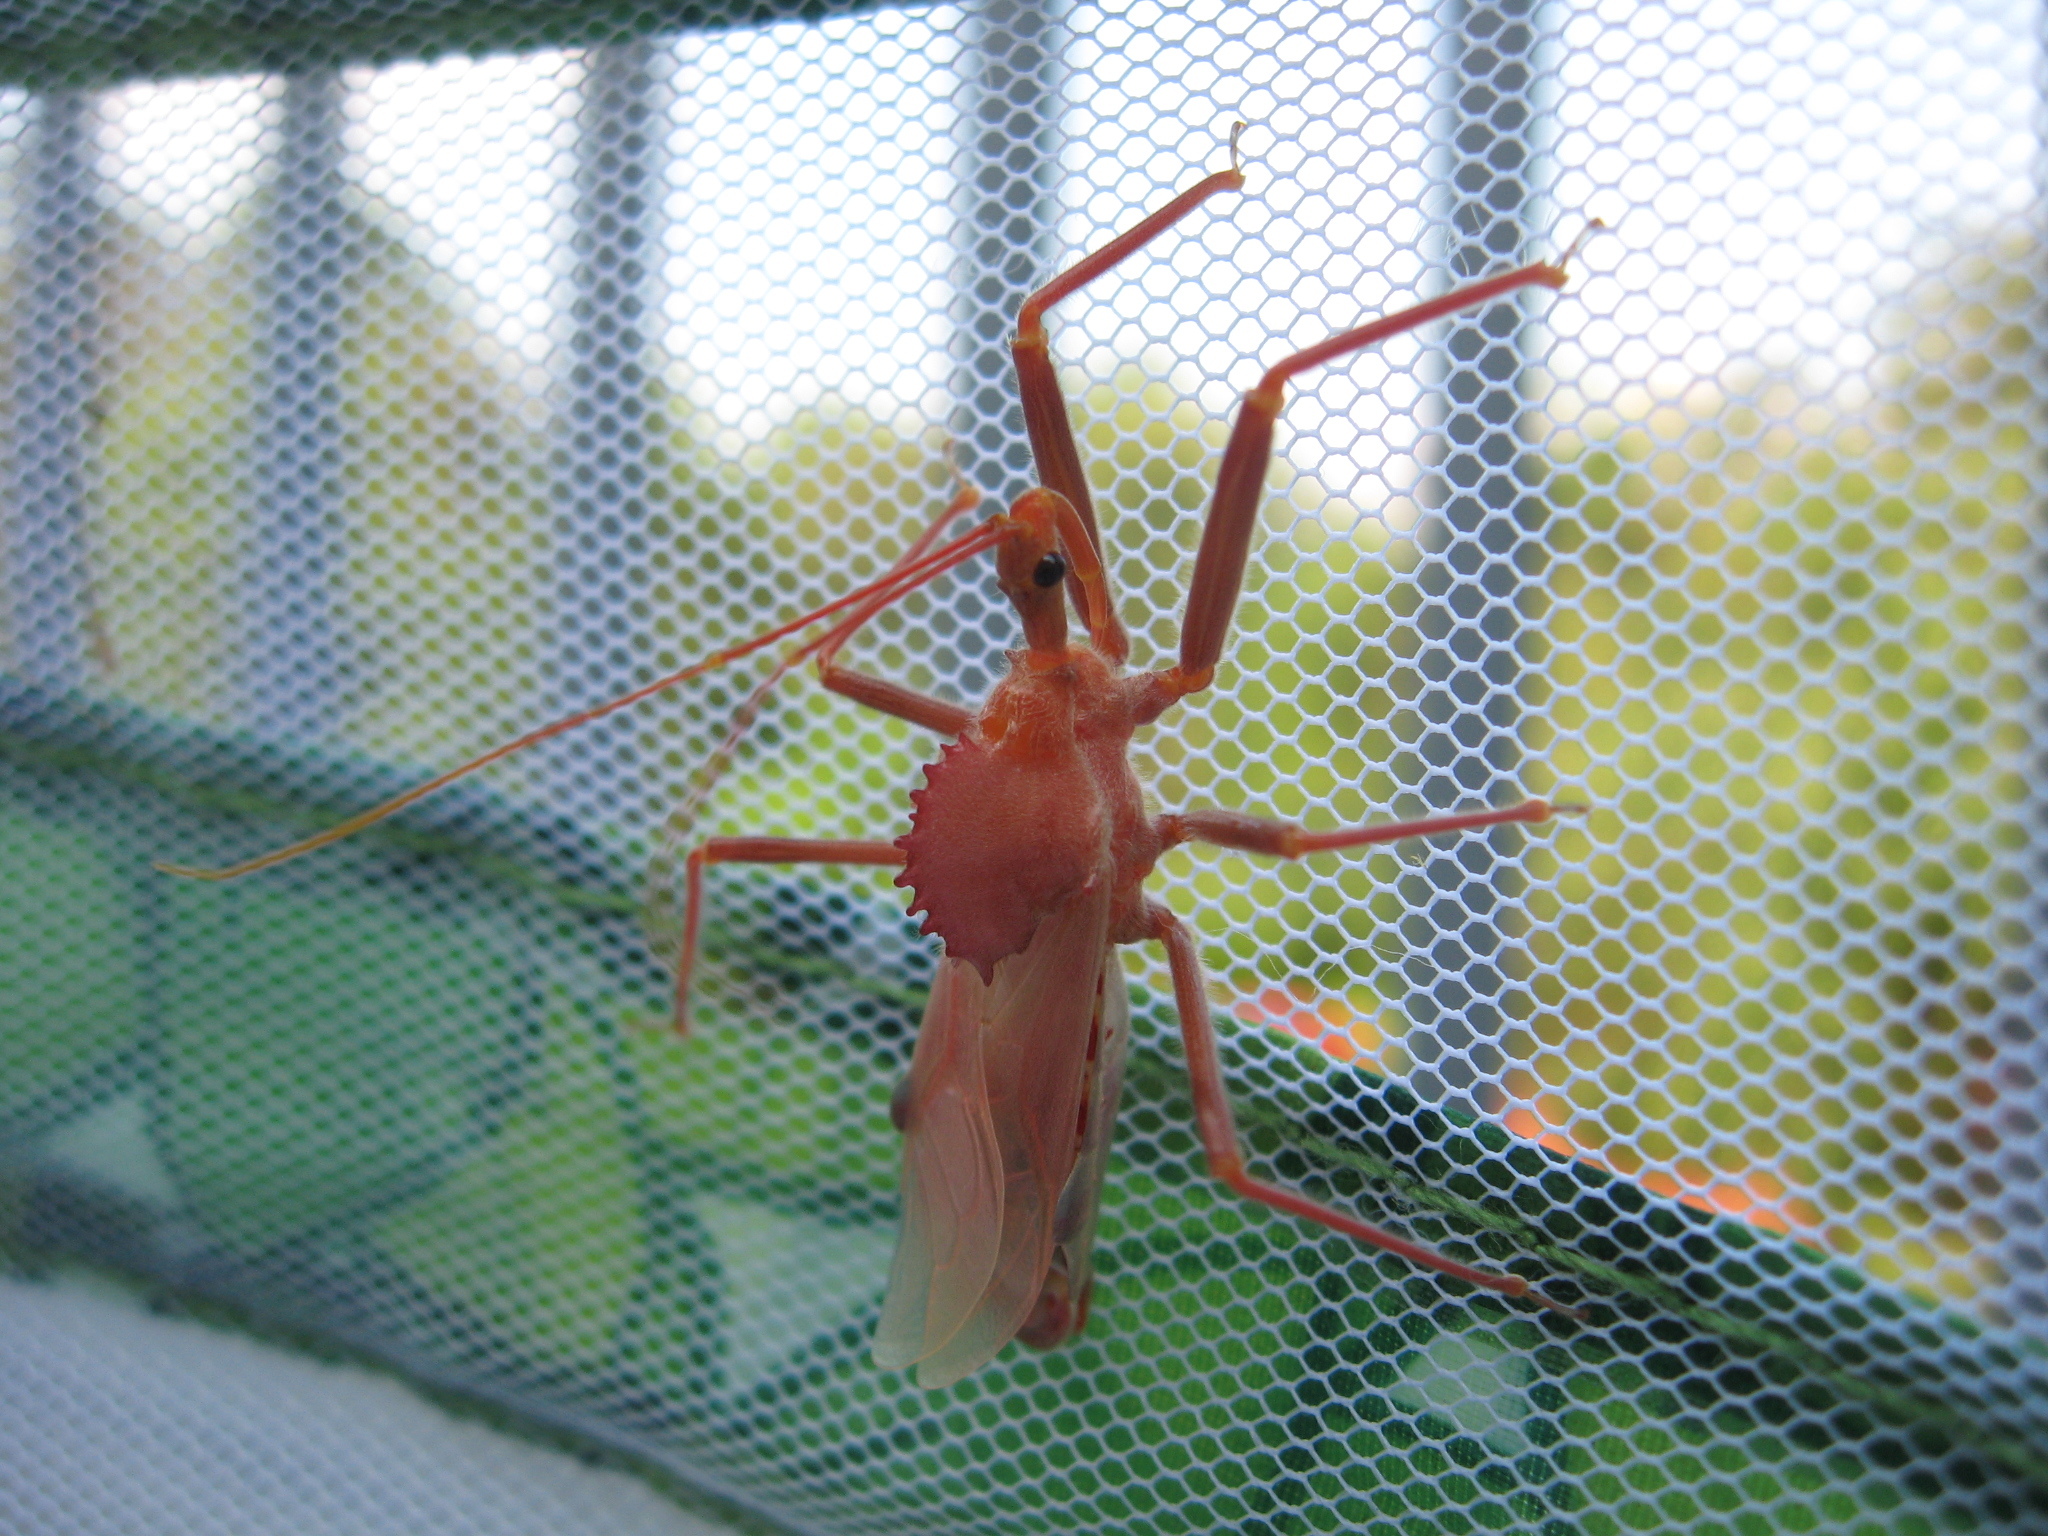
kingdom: Animalia
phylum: Arthropoda
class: Insecta
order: Hemiptera
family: Reduviidae
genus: Arilus
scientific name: Arilus cristatus
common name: North american wheel bug
